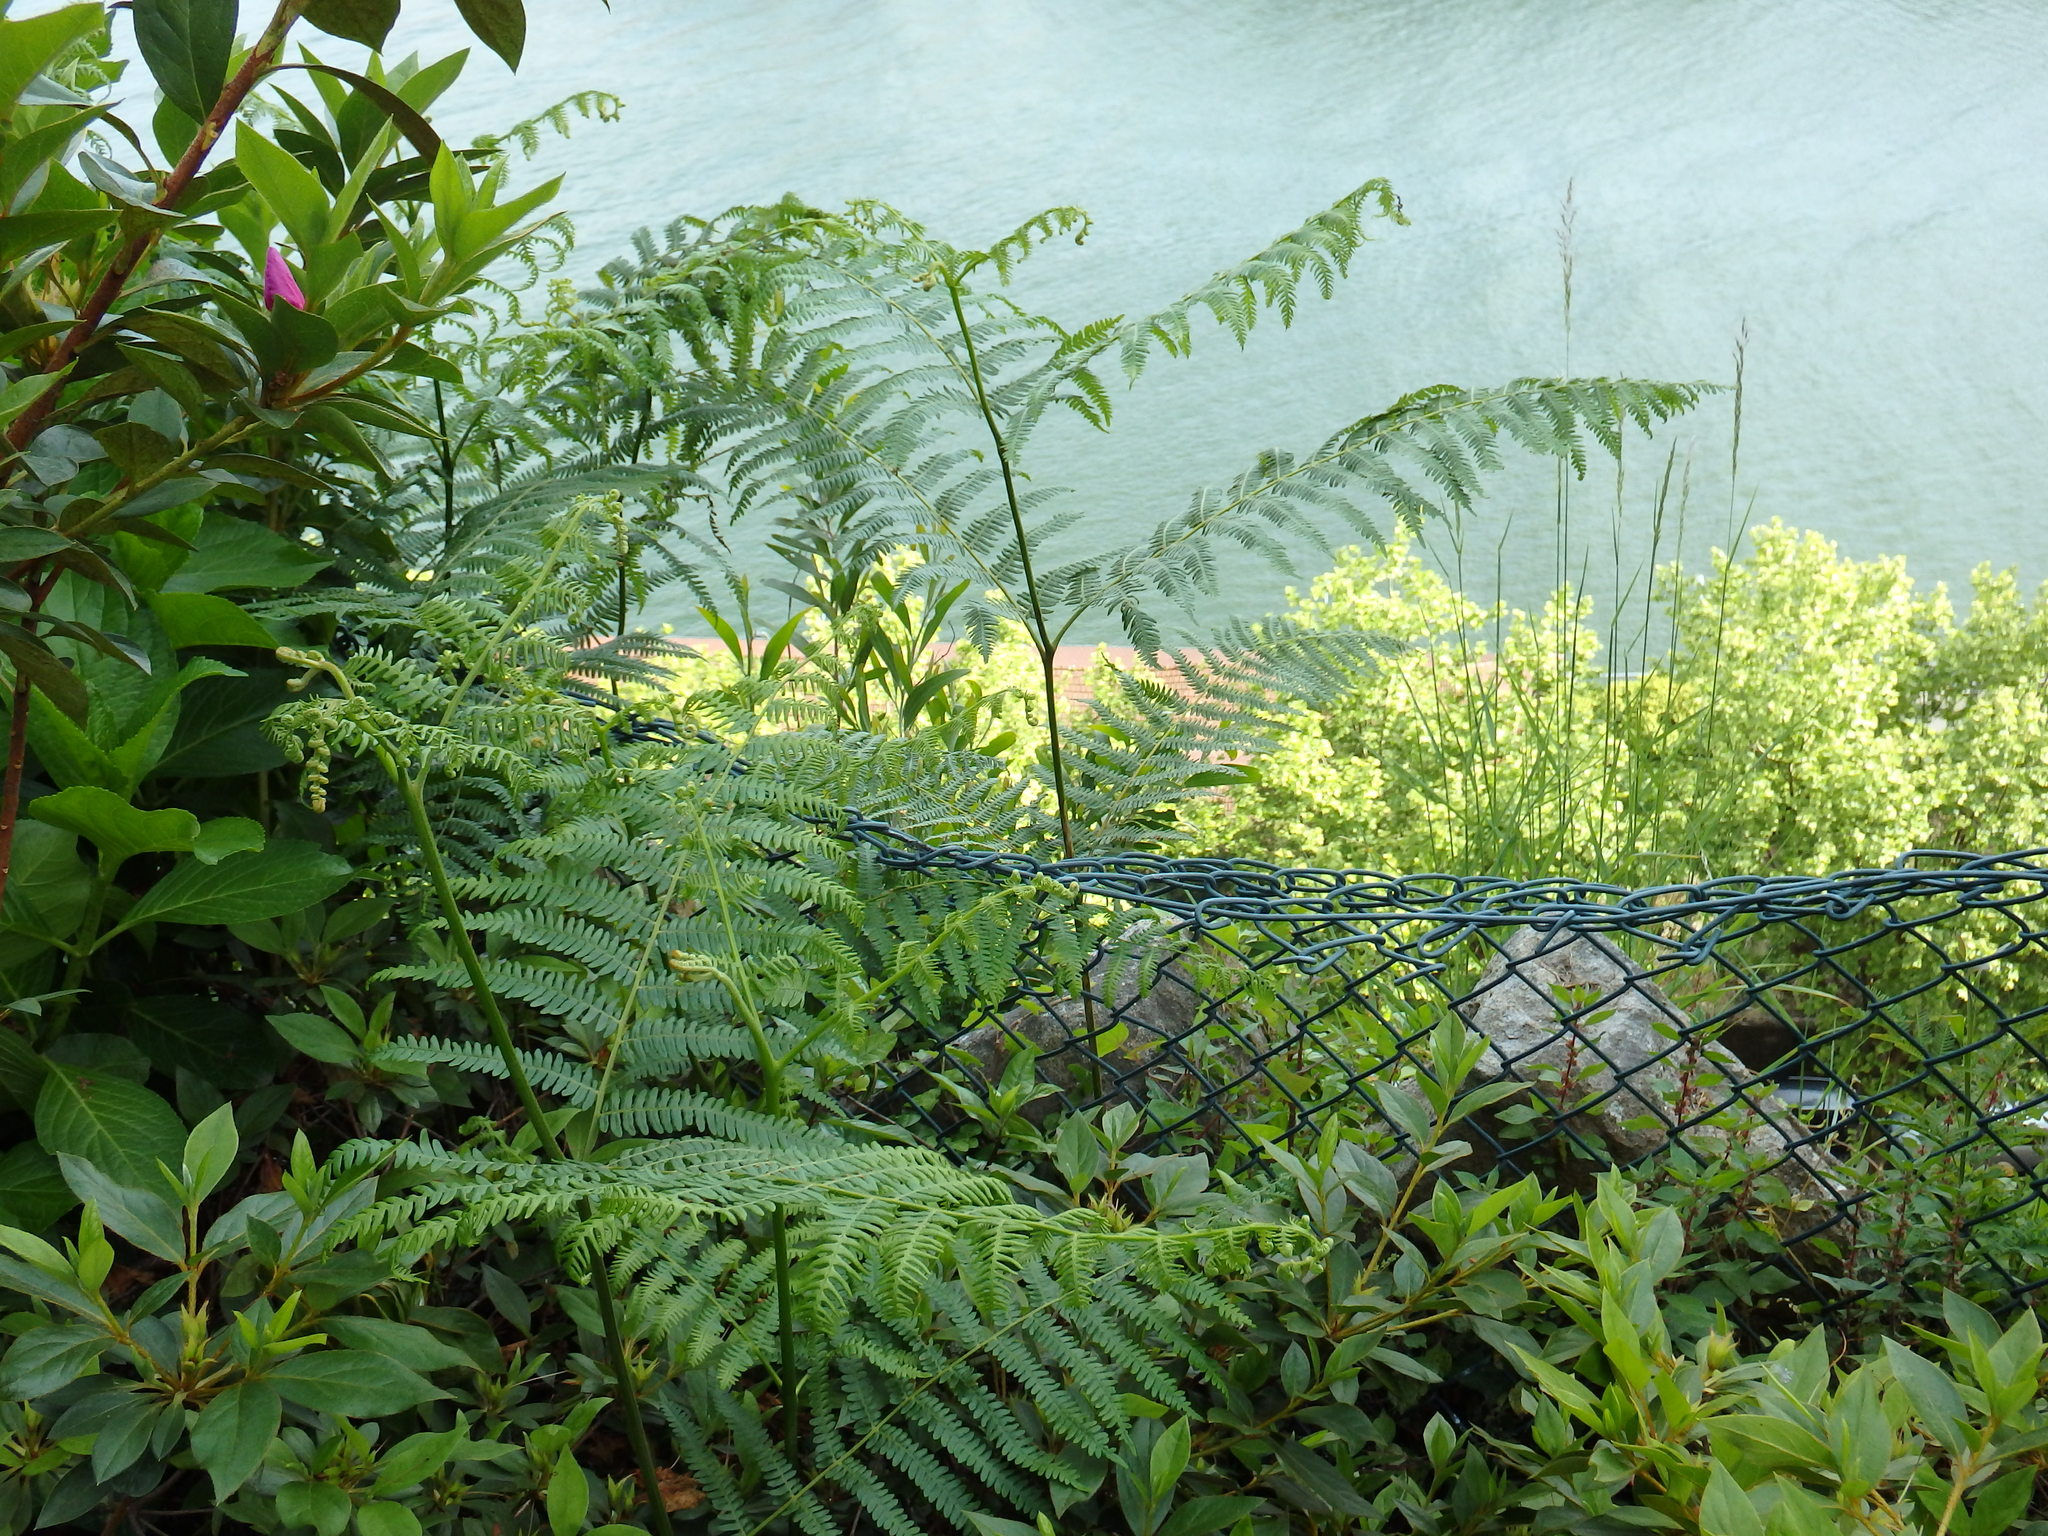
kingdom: Plantae
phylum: Tracheophyta
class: Polypodiopsida
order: Polypodiales
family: Dennstaedtiaceae
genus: Pteridium
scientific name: Pteridium aquilinum
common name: Bracken
